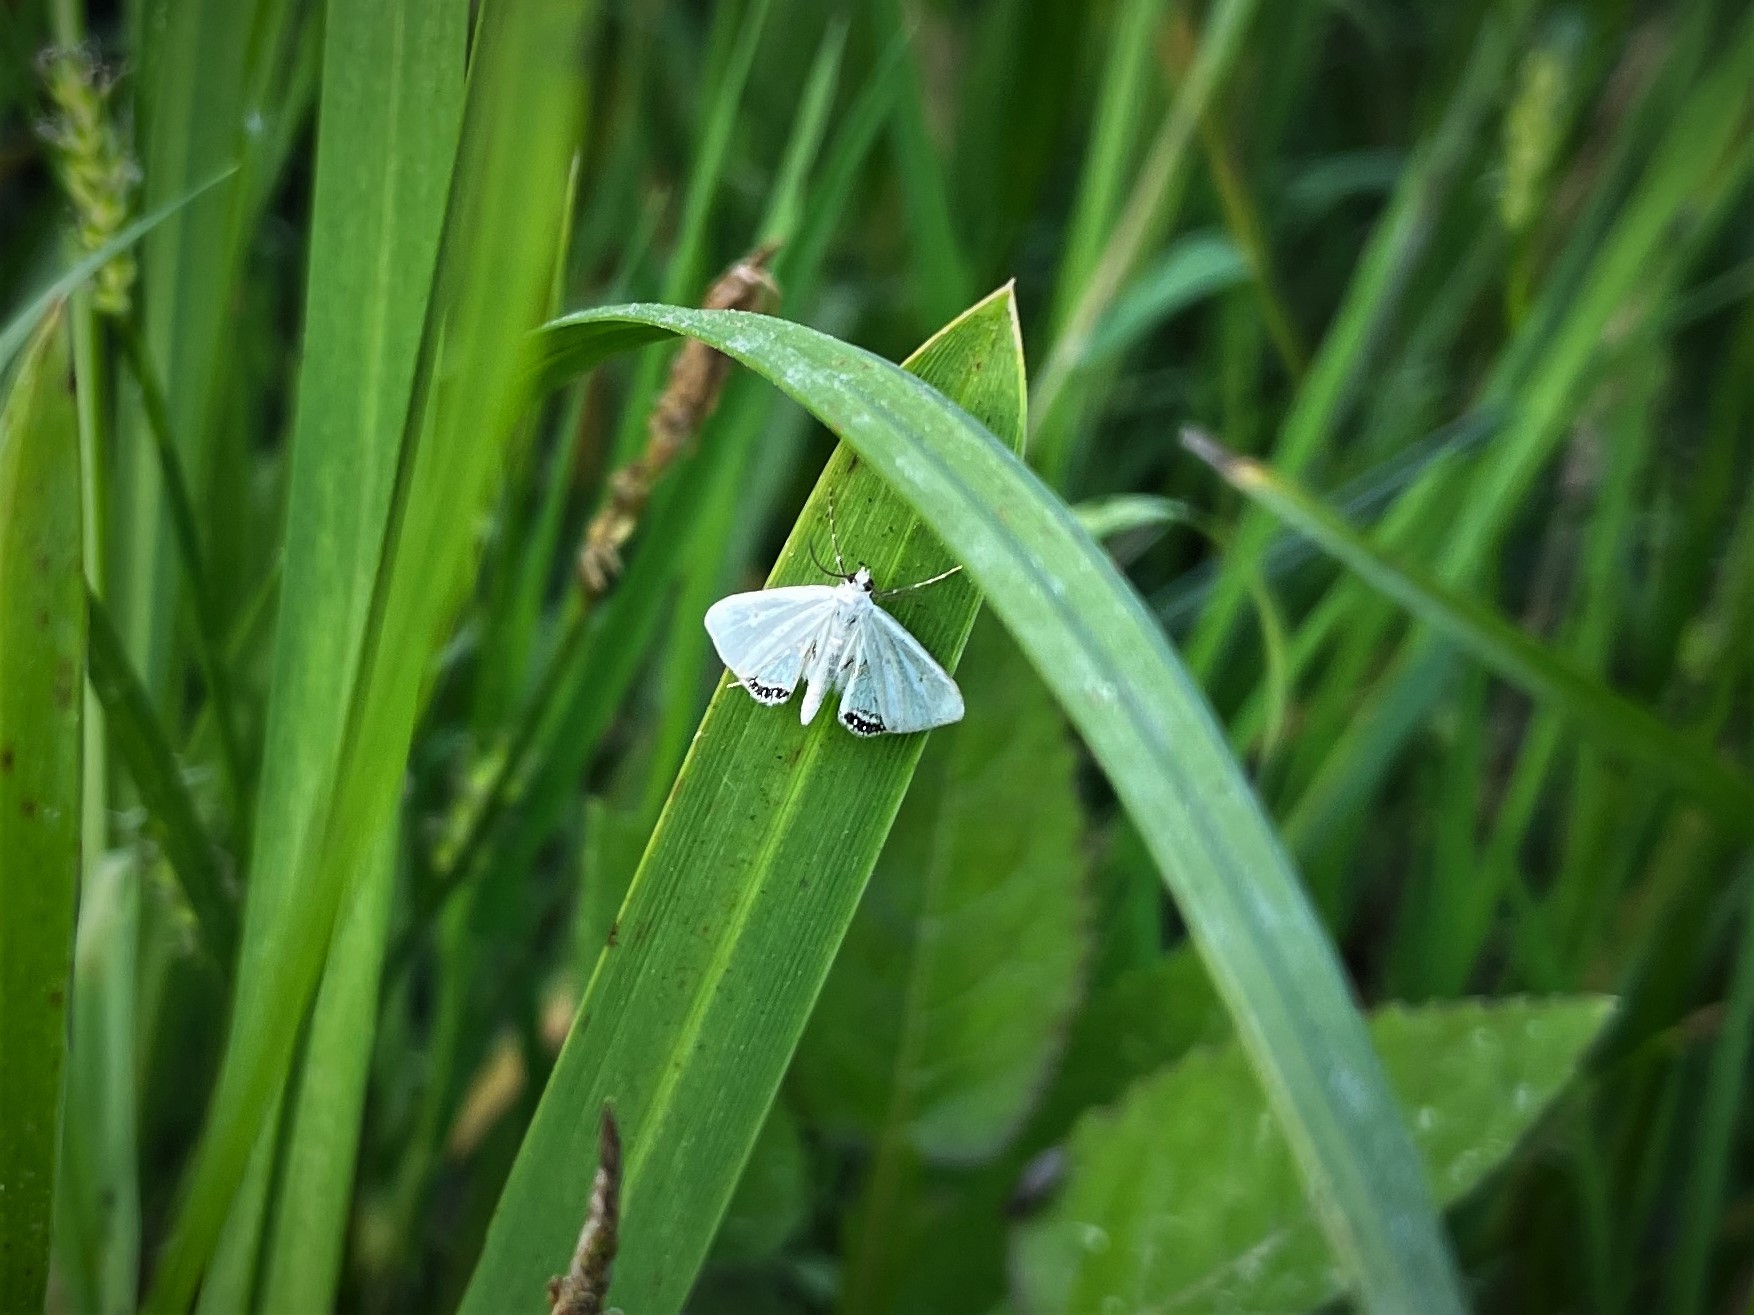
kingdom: Animalia
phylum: Arthropoda
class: Insecta
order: Lepidoptera
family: Crambidae
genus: Cataclysta
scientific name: Cataclysta lemnata
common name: Small china-mark
